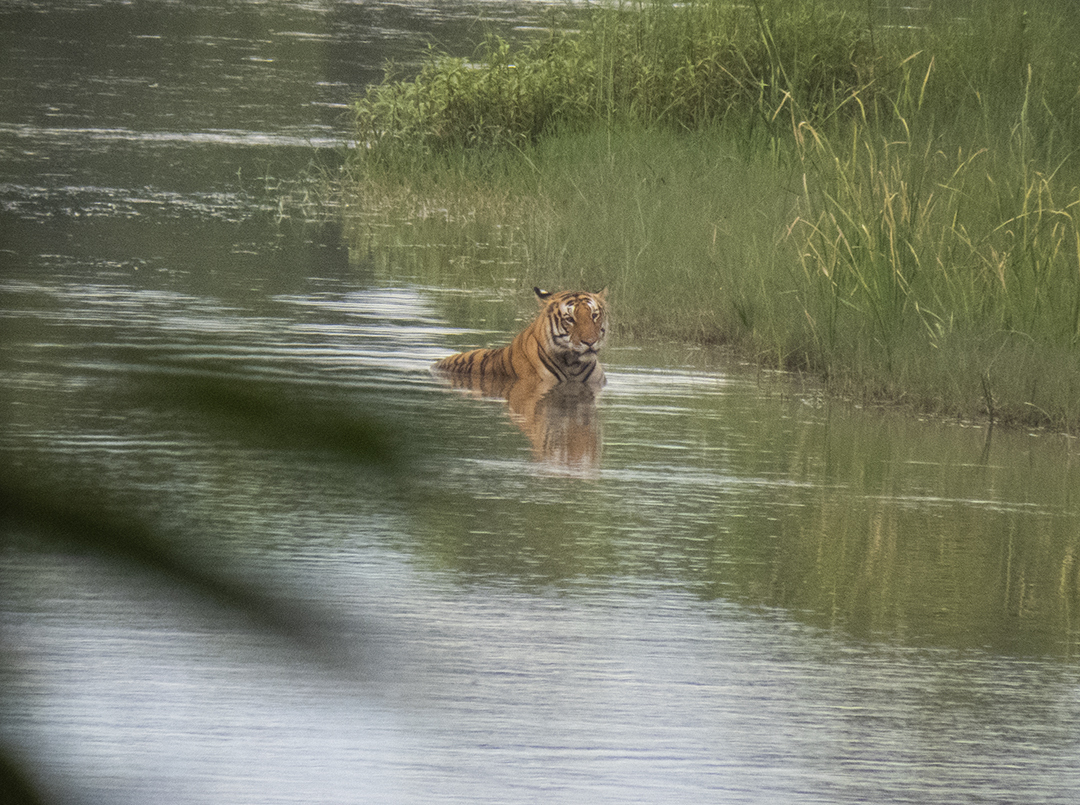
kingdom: Animalia
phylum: Chordata
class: Mammalia
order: Carnivora
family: Felidae
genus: Panthera
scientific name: Panthera tigris
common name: Tiger
